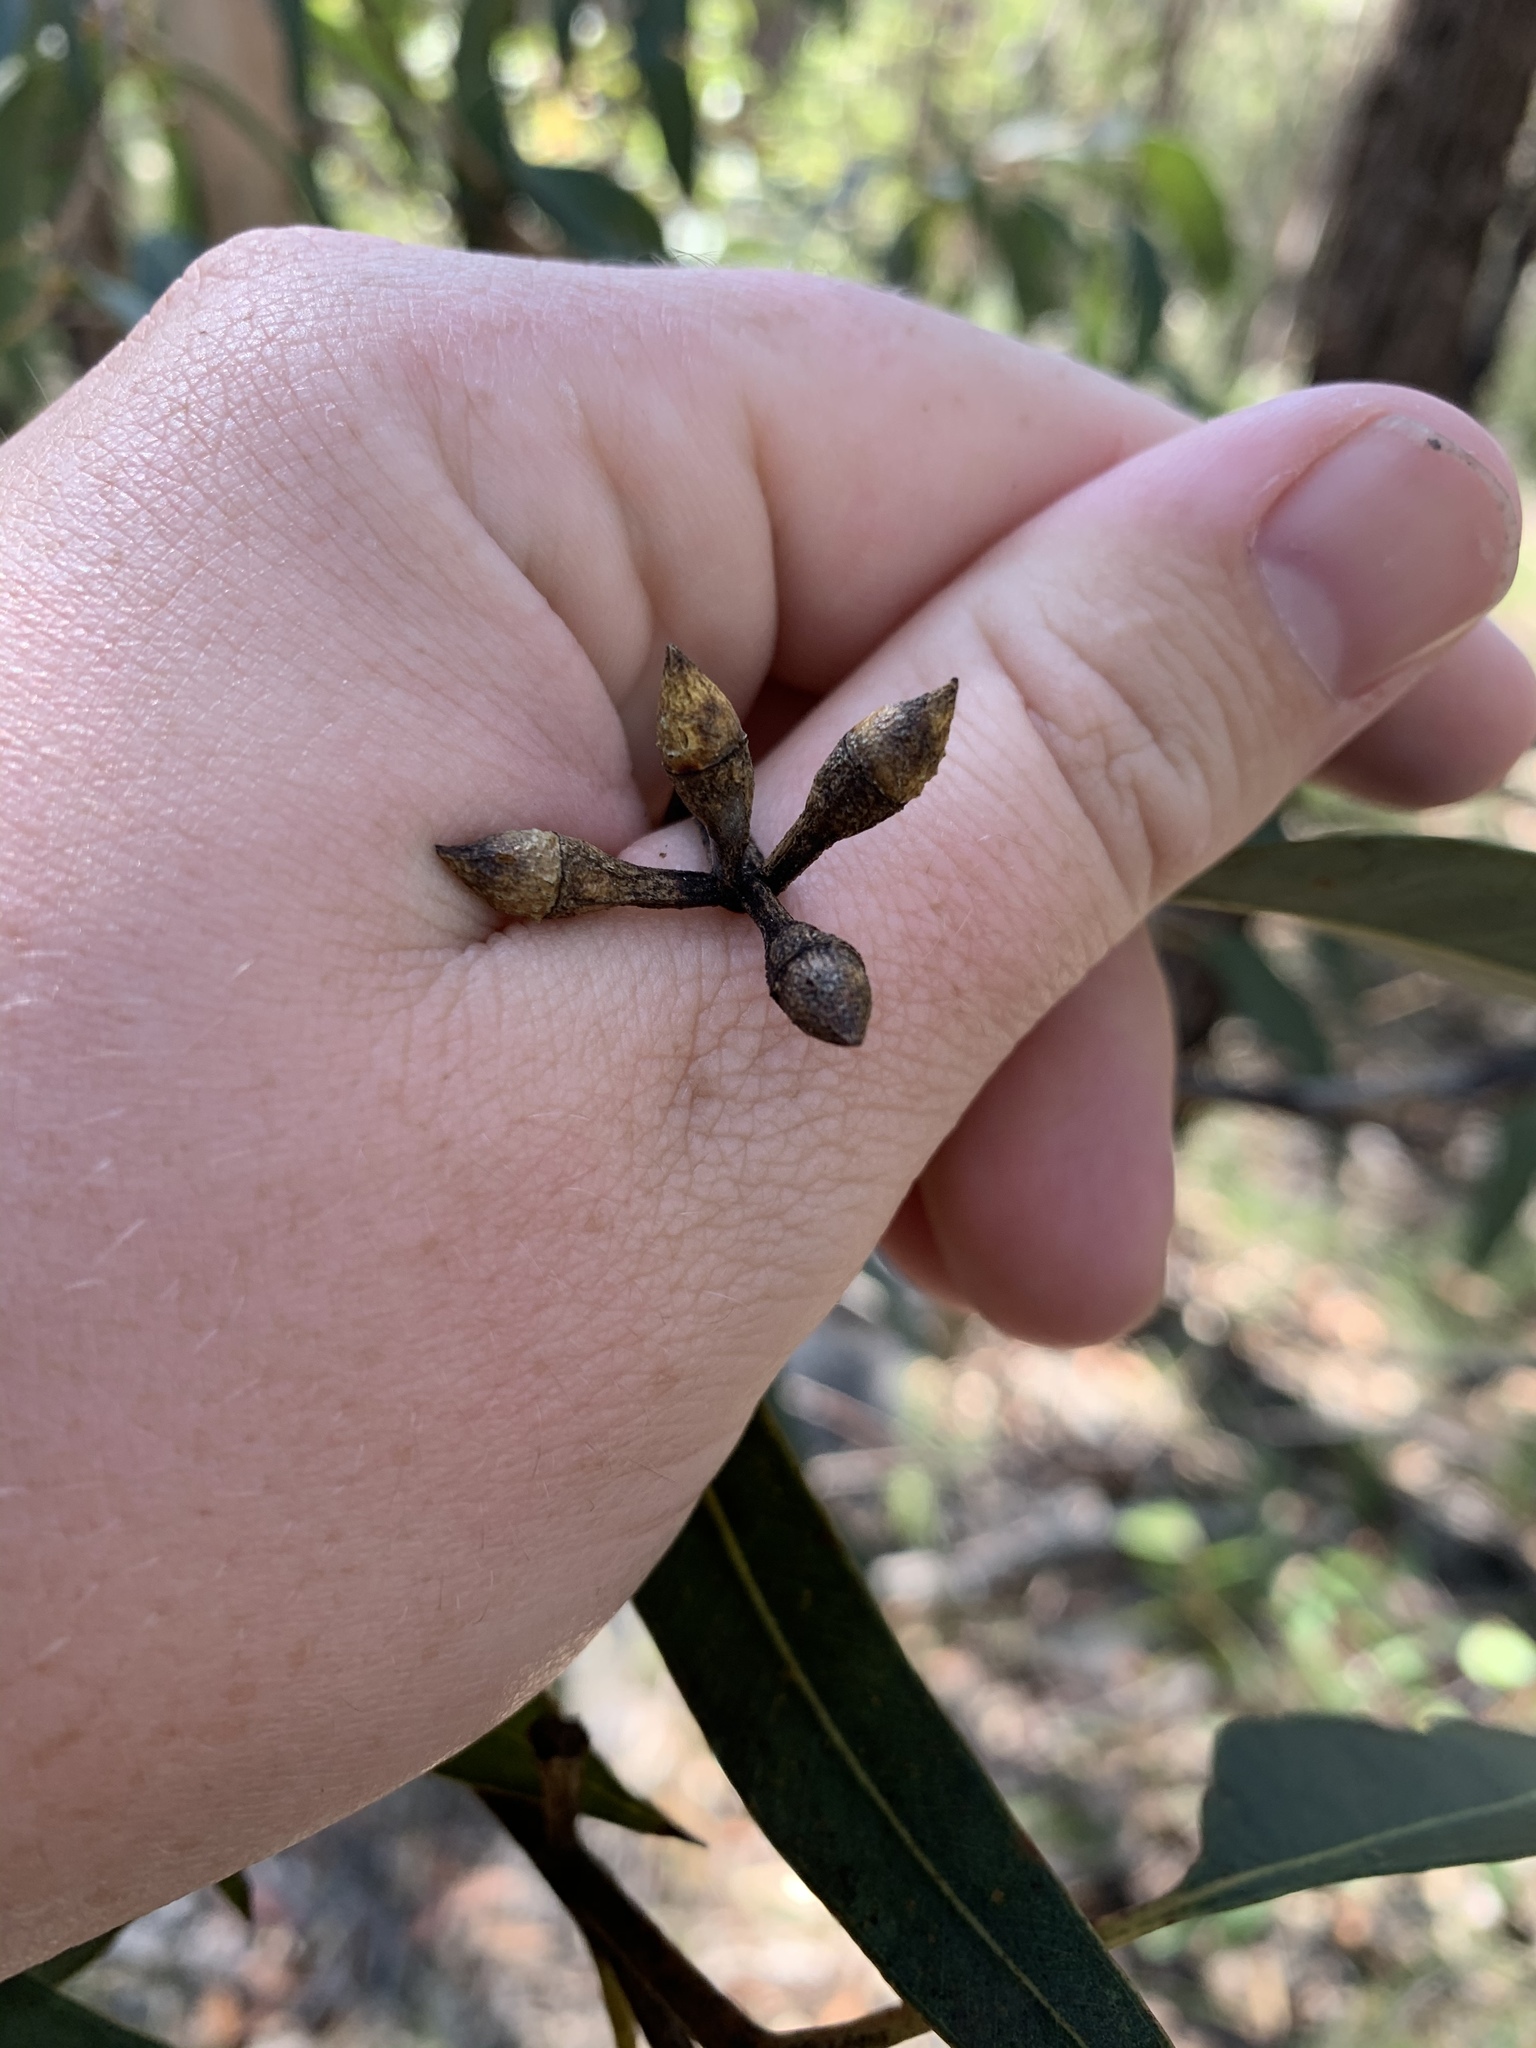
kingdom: Plantae
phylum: Tracheophyta
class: Magnoliopsida
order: Myrtales
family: Myrtaceae
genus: Eucalyptus
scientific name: Eucalyptus punctata
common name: Gray gum
